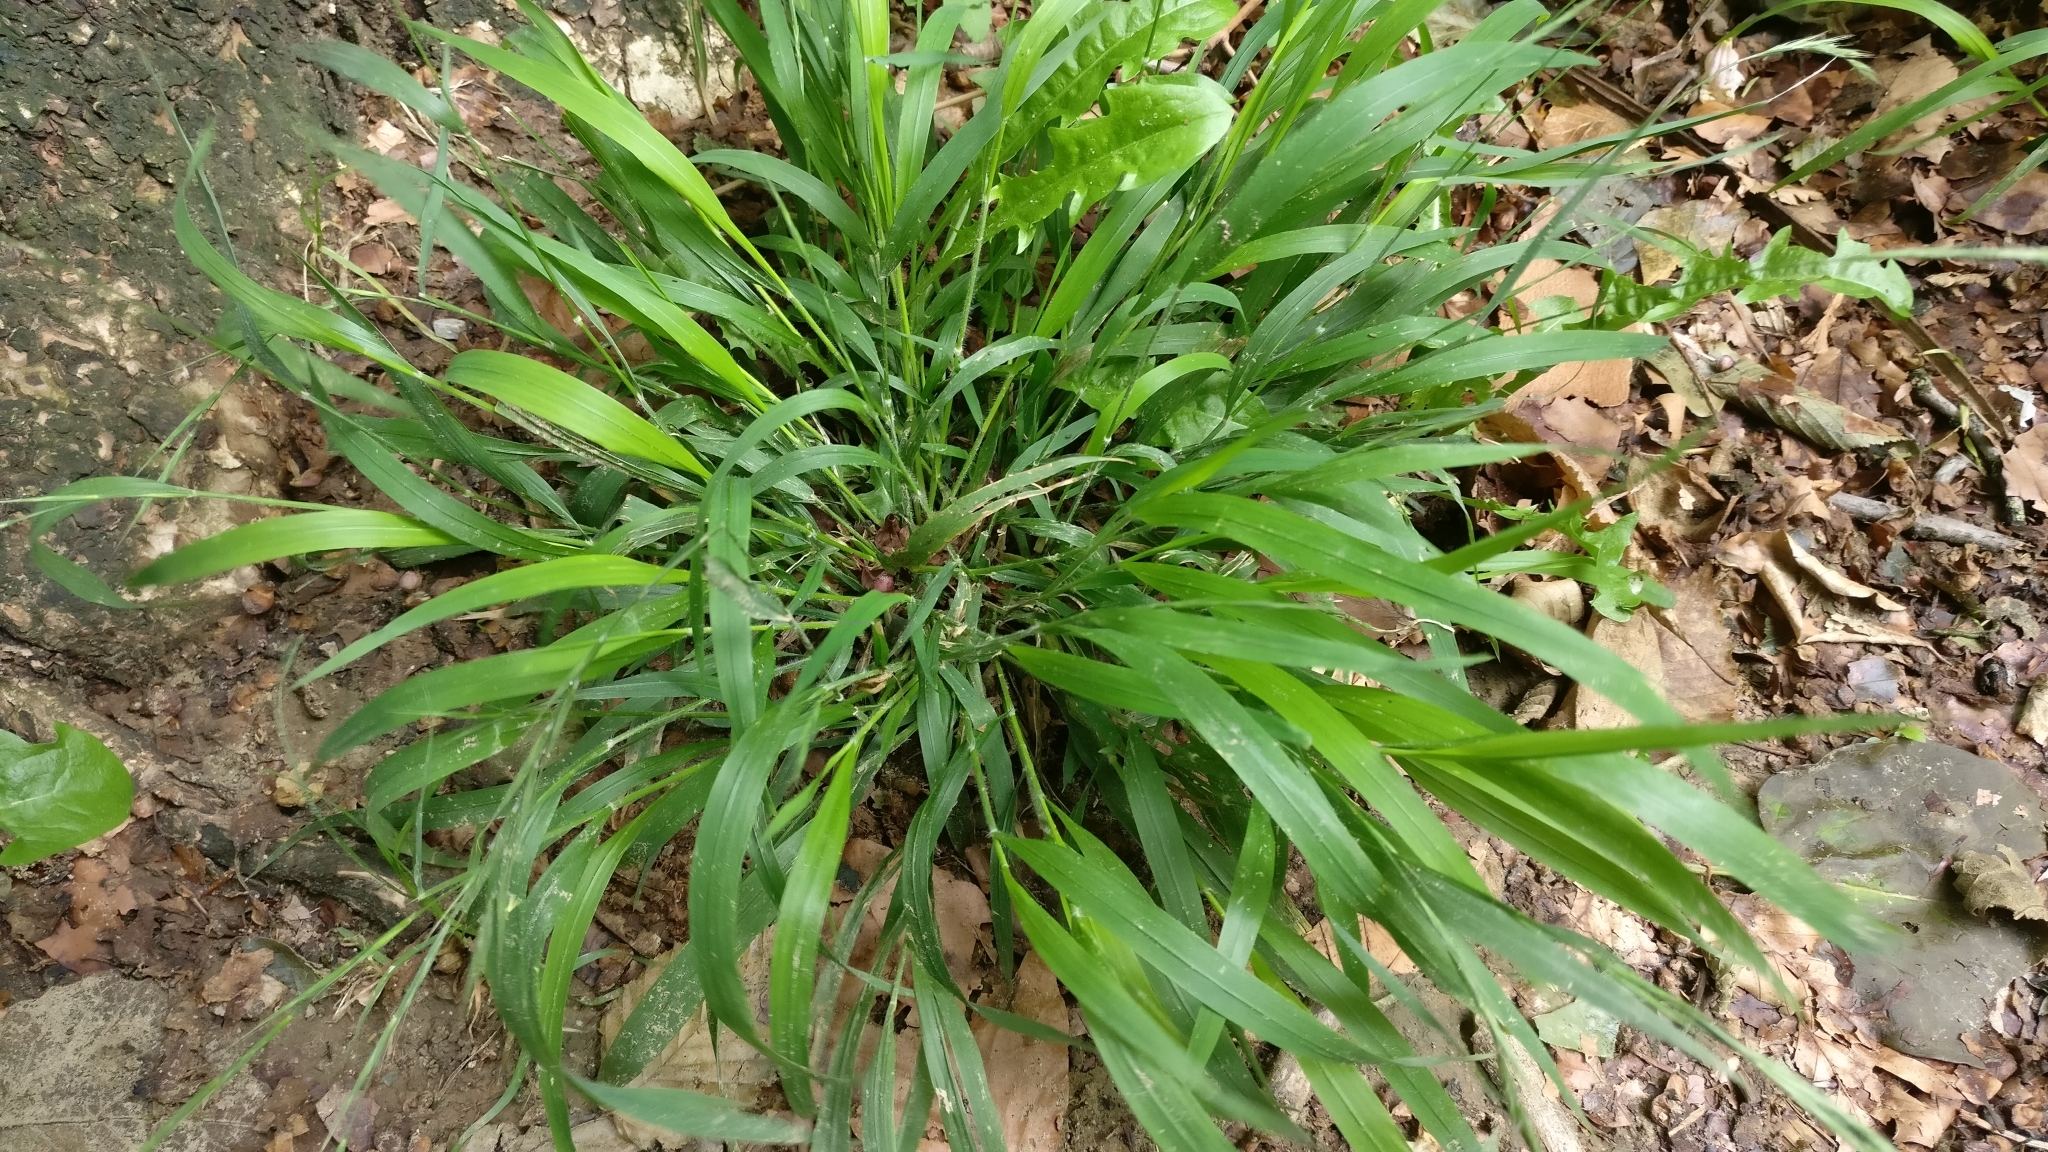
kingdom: Plantae
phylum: Tracheophyta
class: Liliopsida
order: Poales
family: Poaceae
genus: Brachypodium
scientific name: Brachypodium sylvaticum
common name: False-brome
